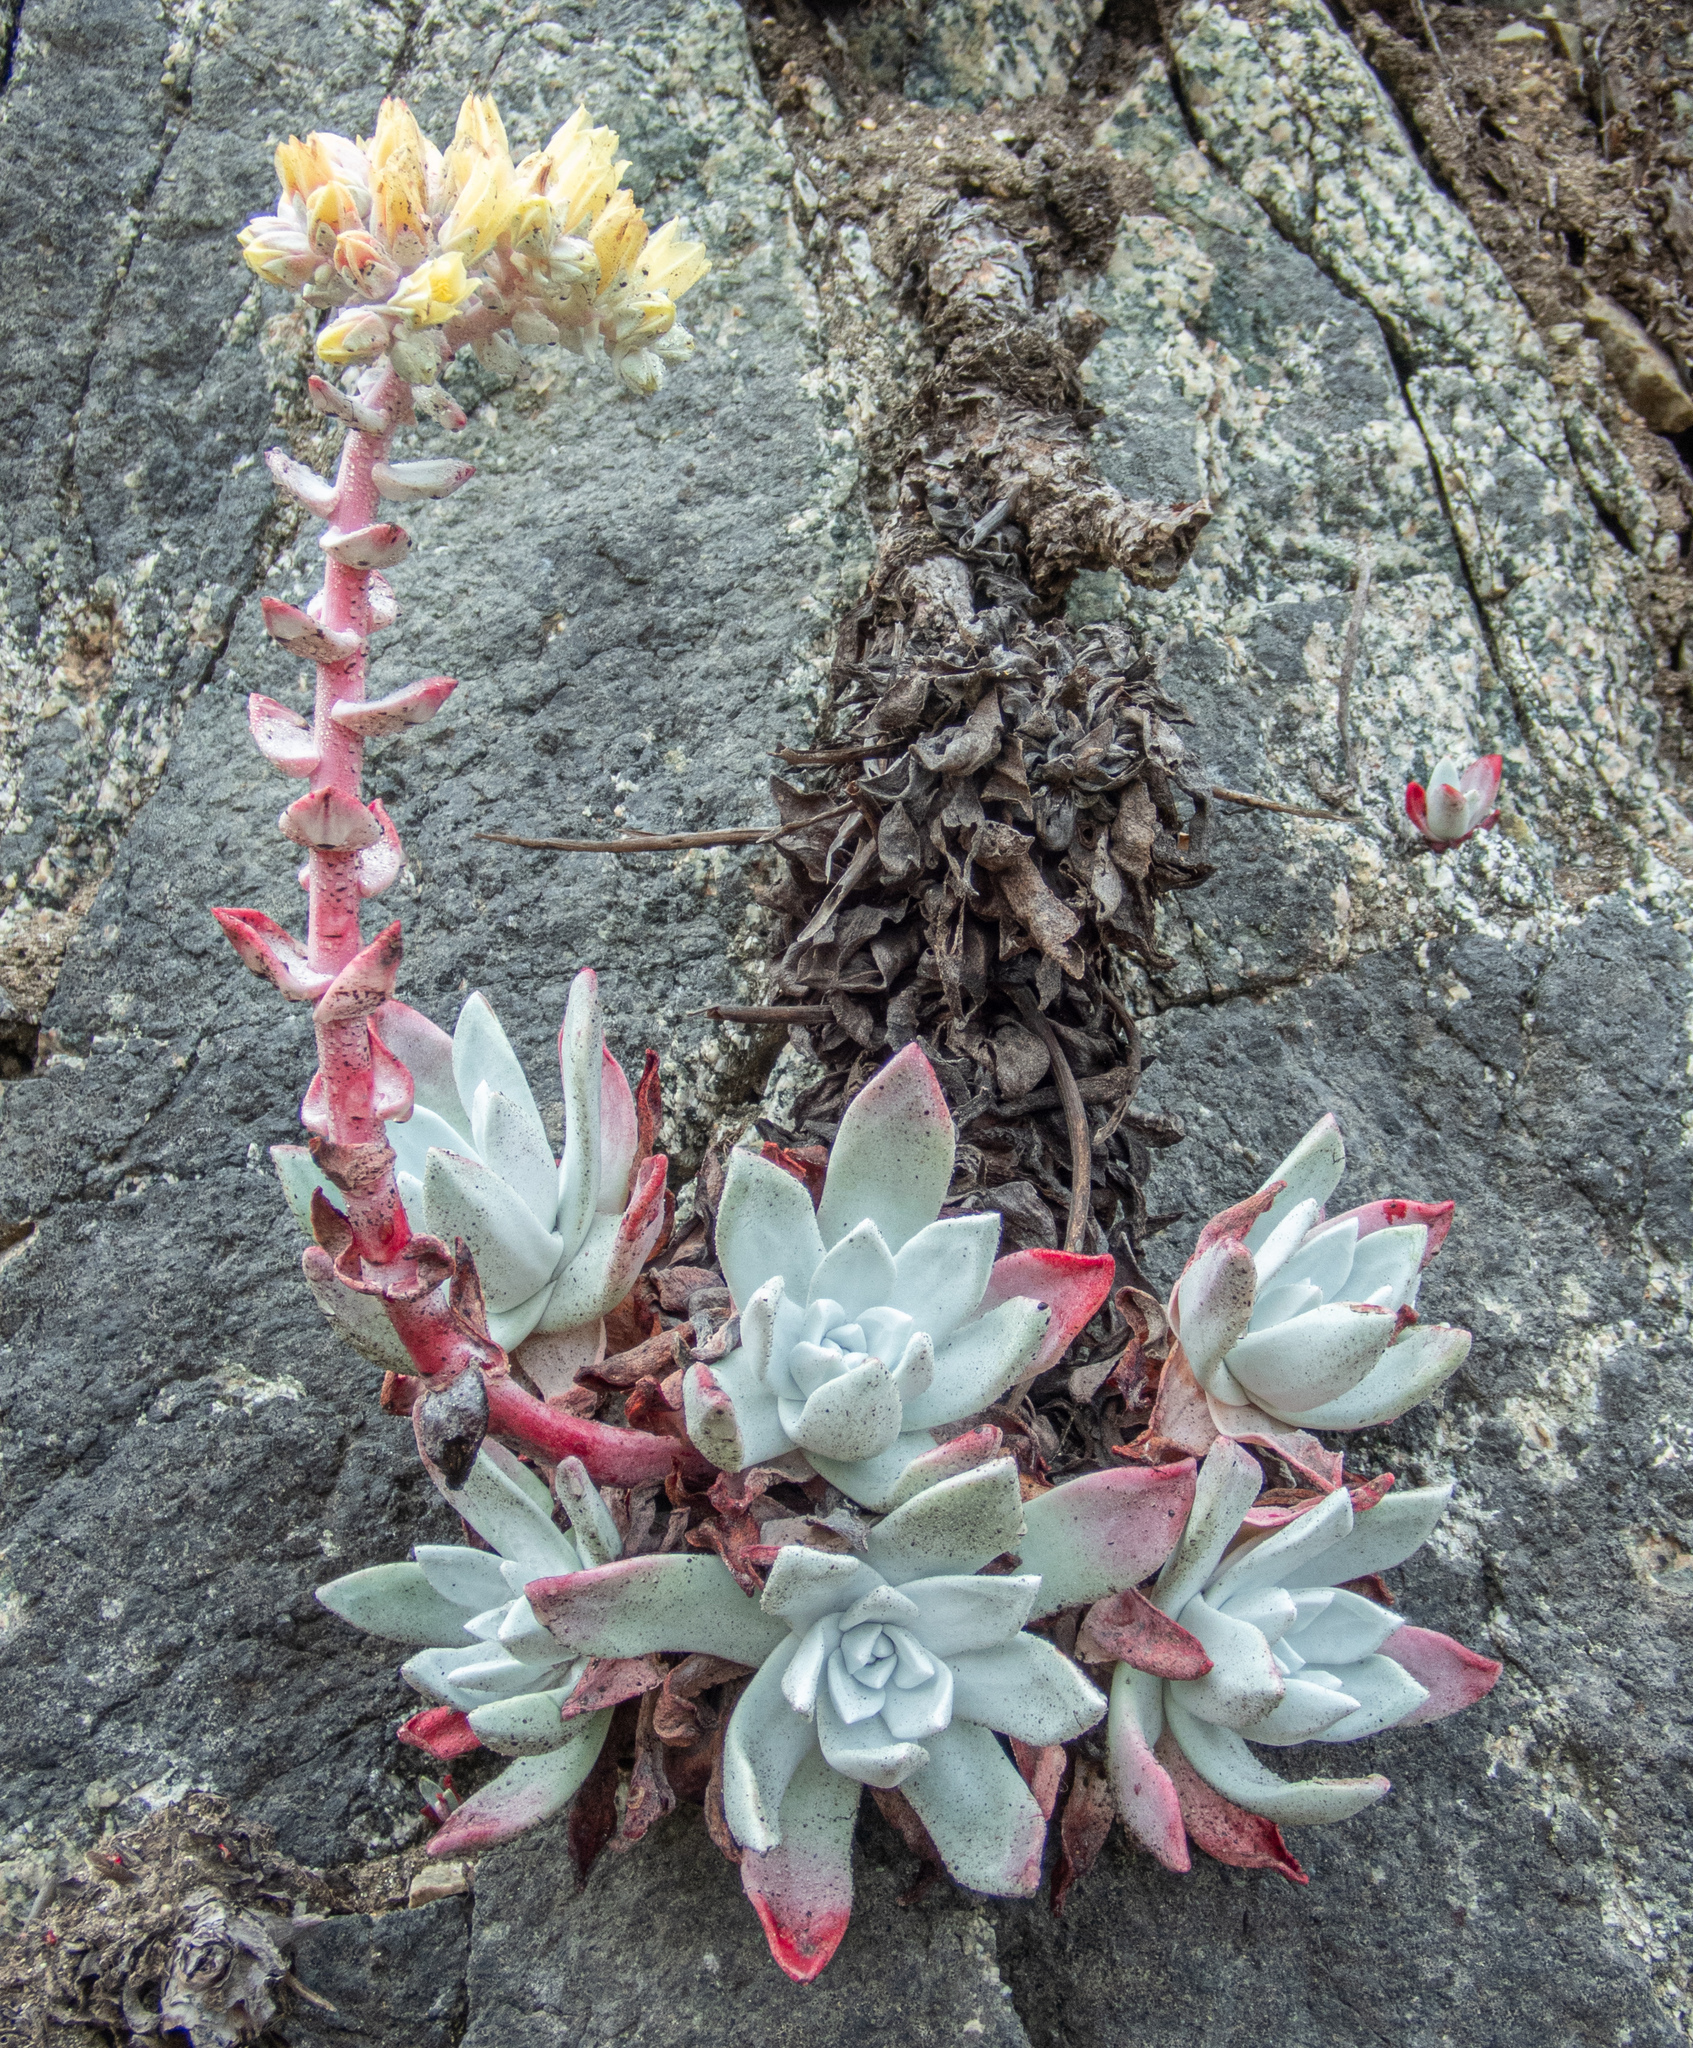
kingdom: Plantae
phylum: Tracheophyta
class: Magnoliopsida
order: Saxifragales
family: Crassulaceae
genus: Dudleya
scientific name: Dudleya farinosa
